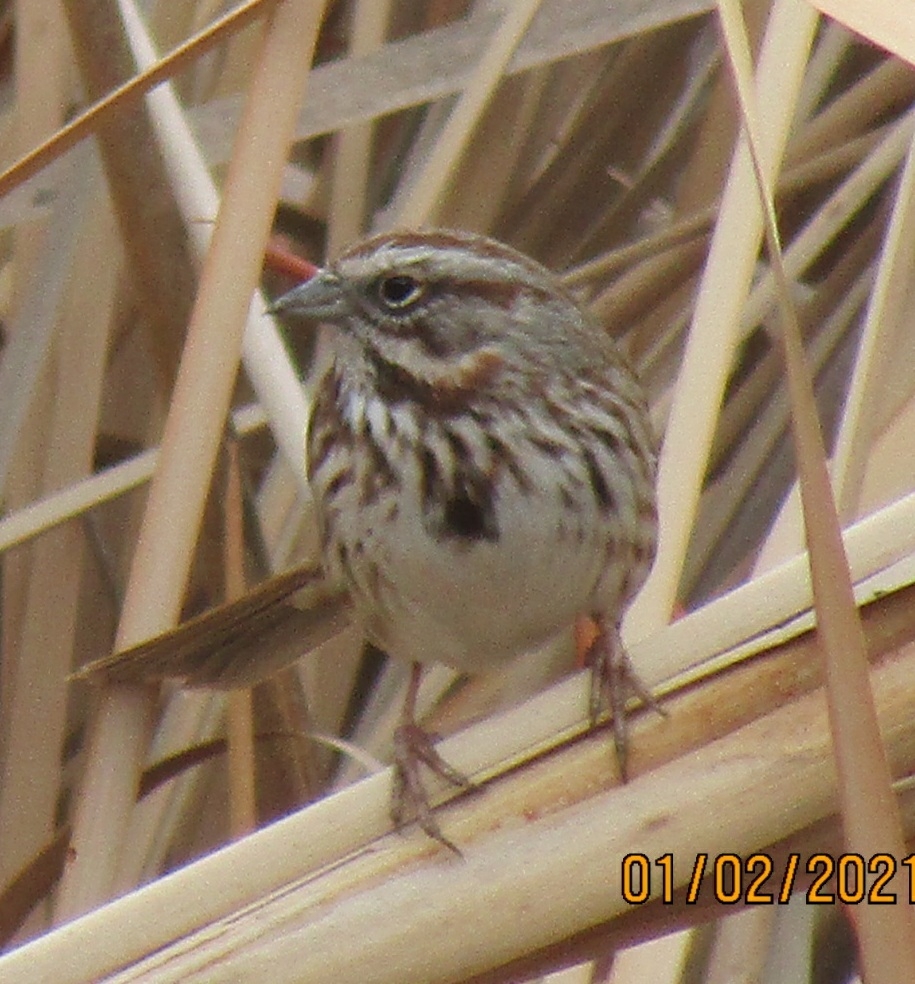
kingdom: Animalia
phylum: Chordata
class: Aves
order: Passeriformes
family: Passerellidae
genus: Melospiza
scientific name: Melospiza melodia
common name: Song sparrow
